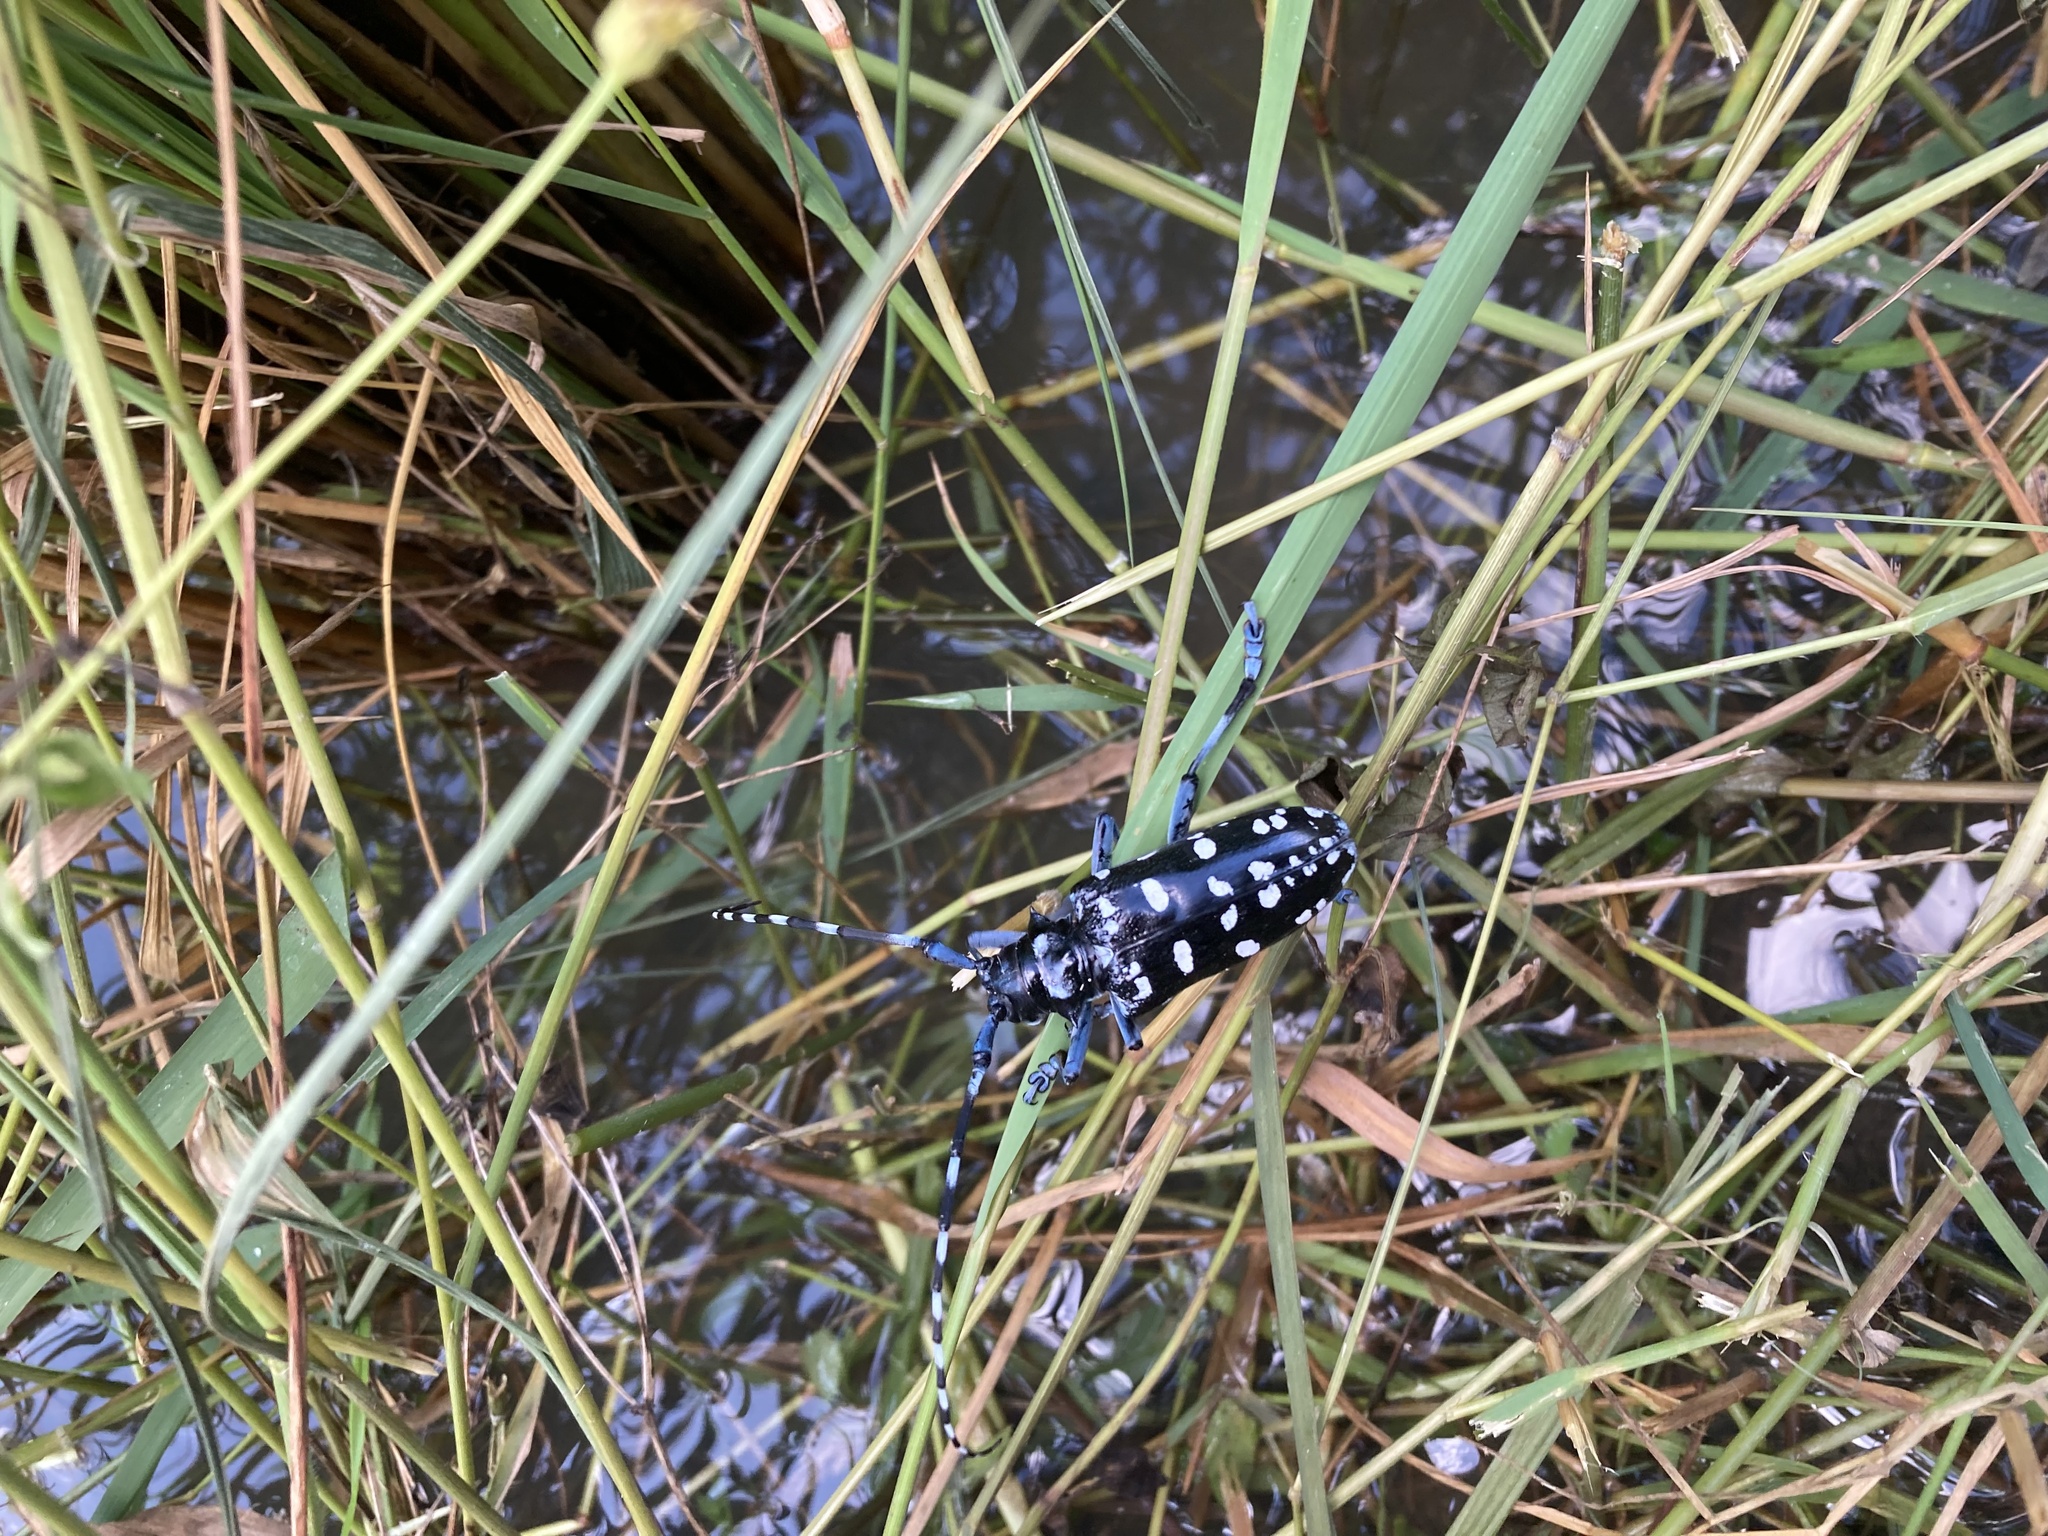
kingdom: Animalia
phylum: Arthropoda
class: Insecta
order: Coleoptera
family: Cerambycidae
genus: Anoplophora
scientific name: Anoplophora macularia
